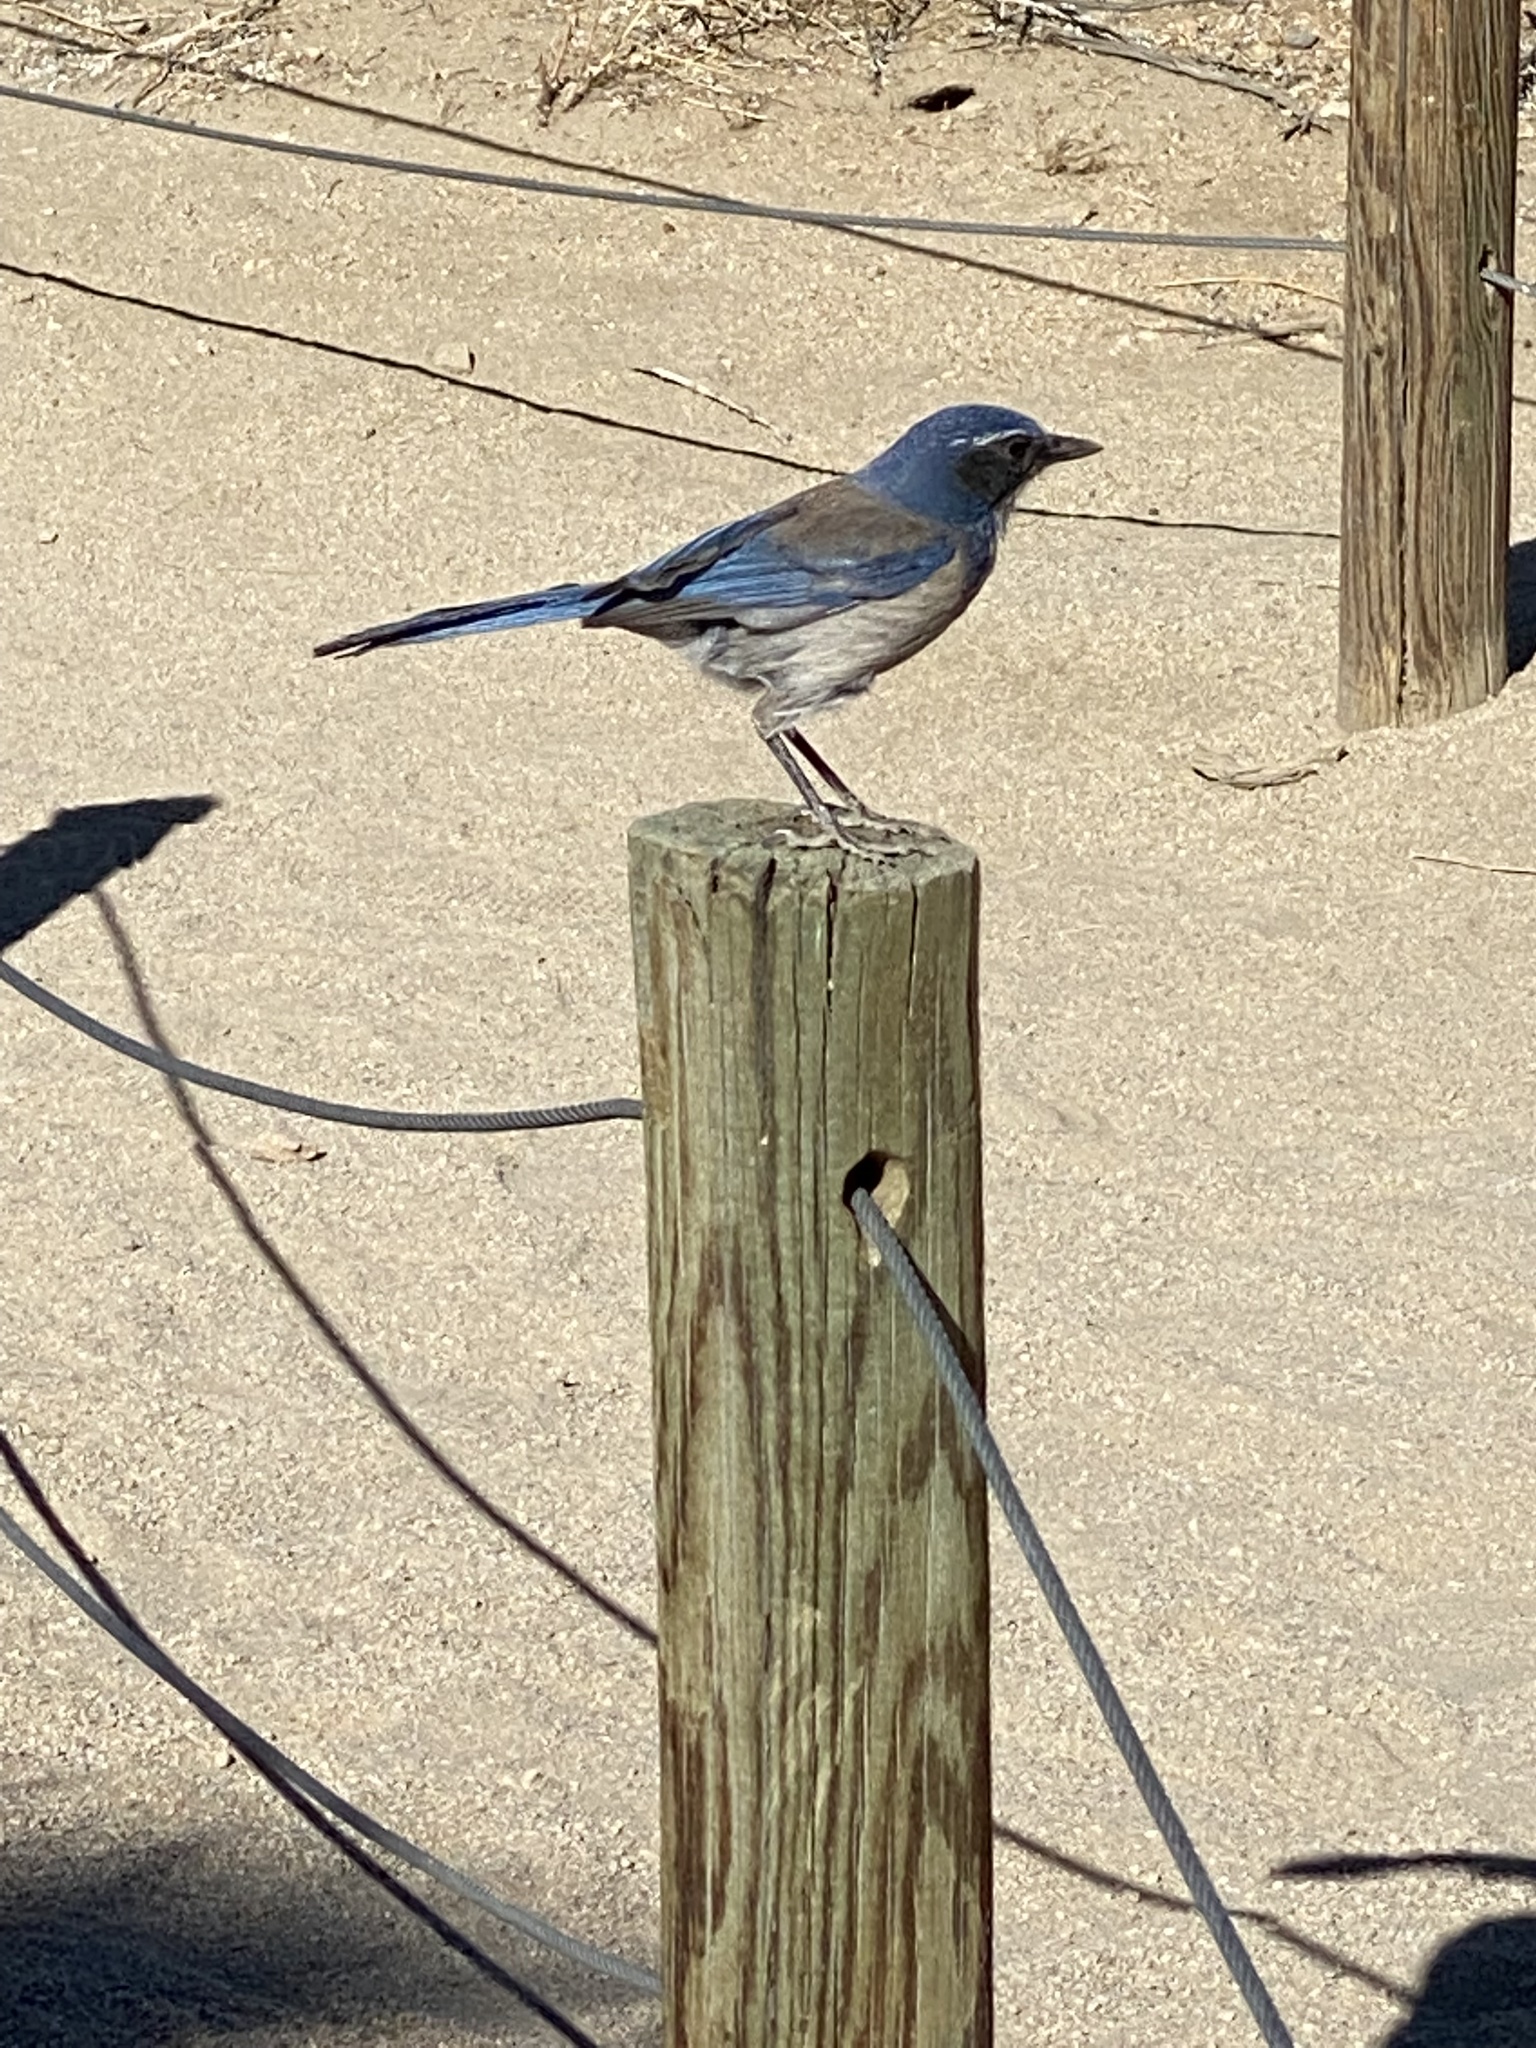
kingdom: Animalia
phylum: Chordata
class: Aves
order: Passeriformes
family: Corvidae
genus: Aphelocoma
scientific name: Aphelocoma californica
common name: California scrub-jay
